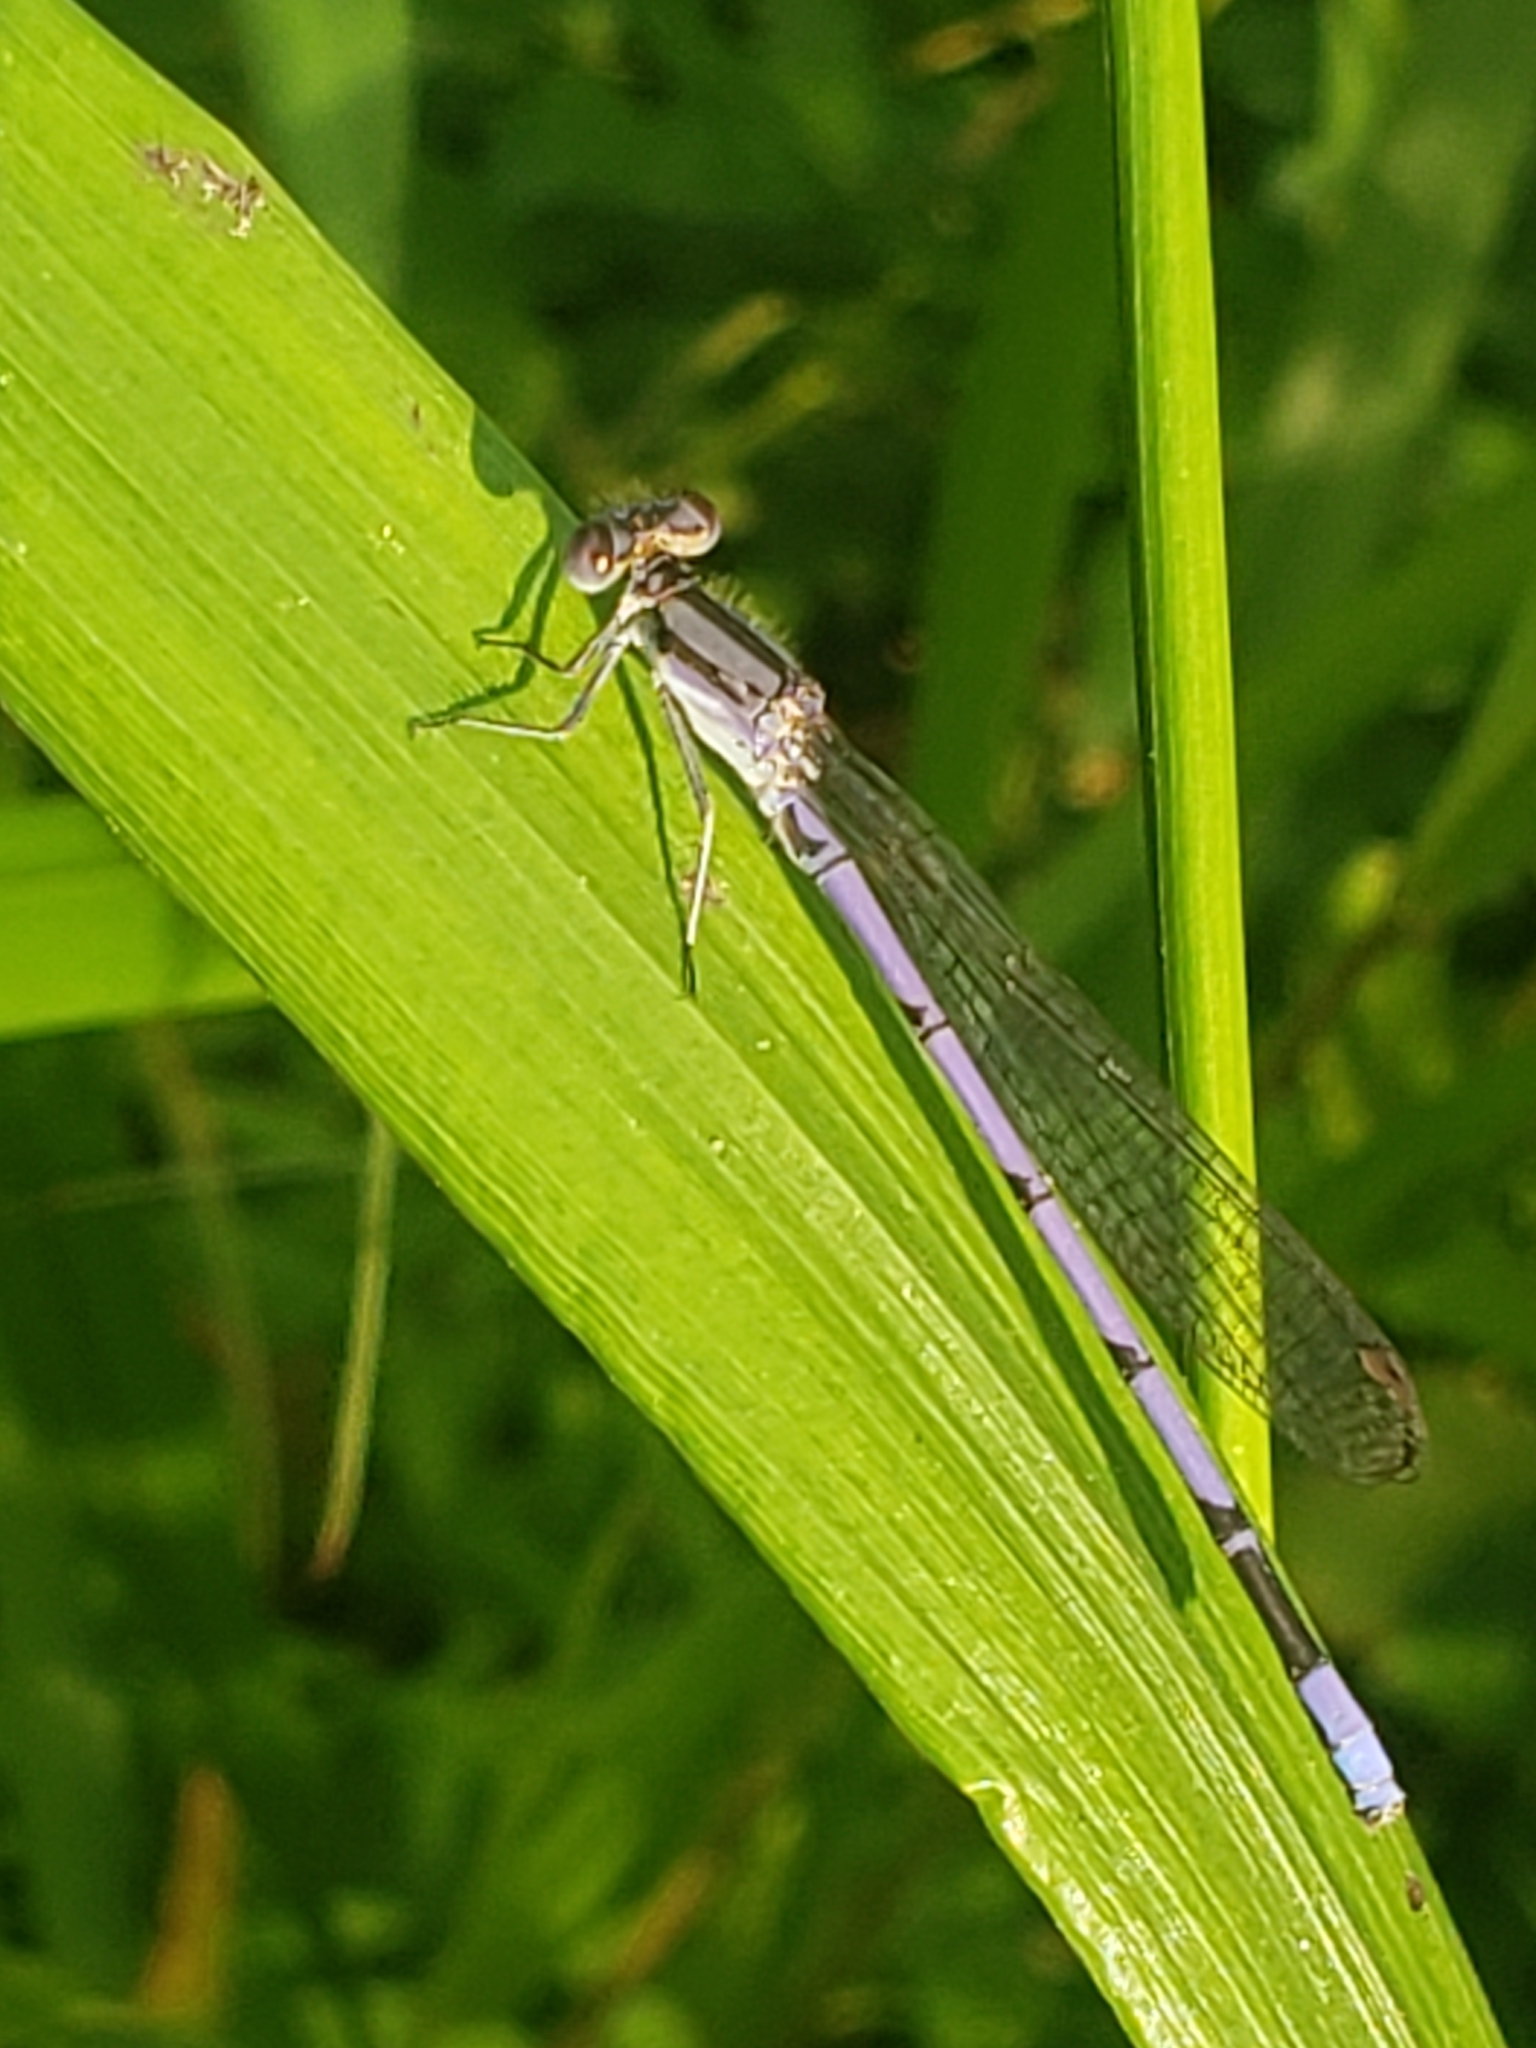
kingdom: Animalia
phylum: Arthropoda
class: Insecta
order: Odonata
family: Coenagrionidae
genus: Argia
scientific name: Argia fumipennis
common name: Variable dancer
